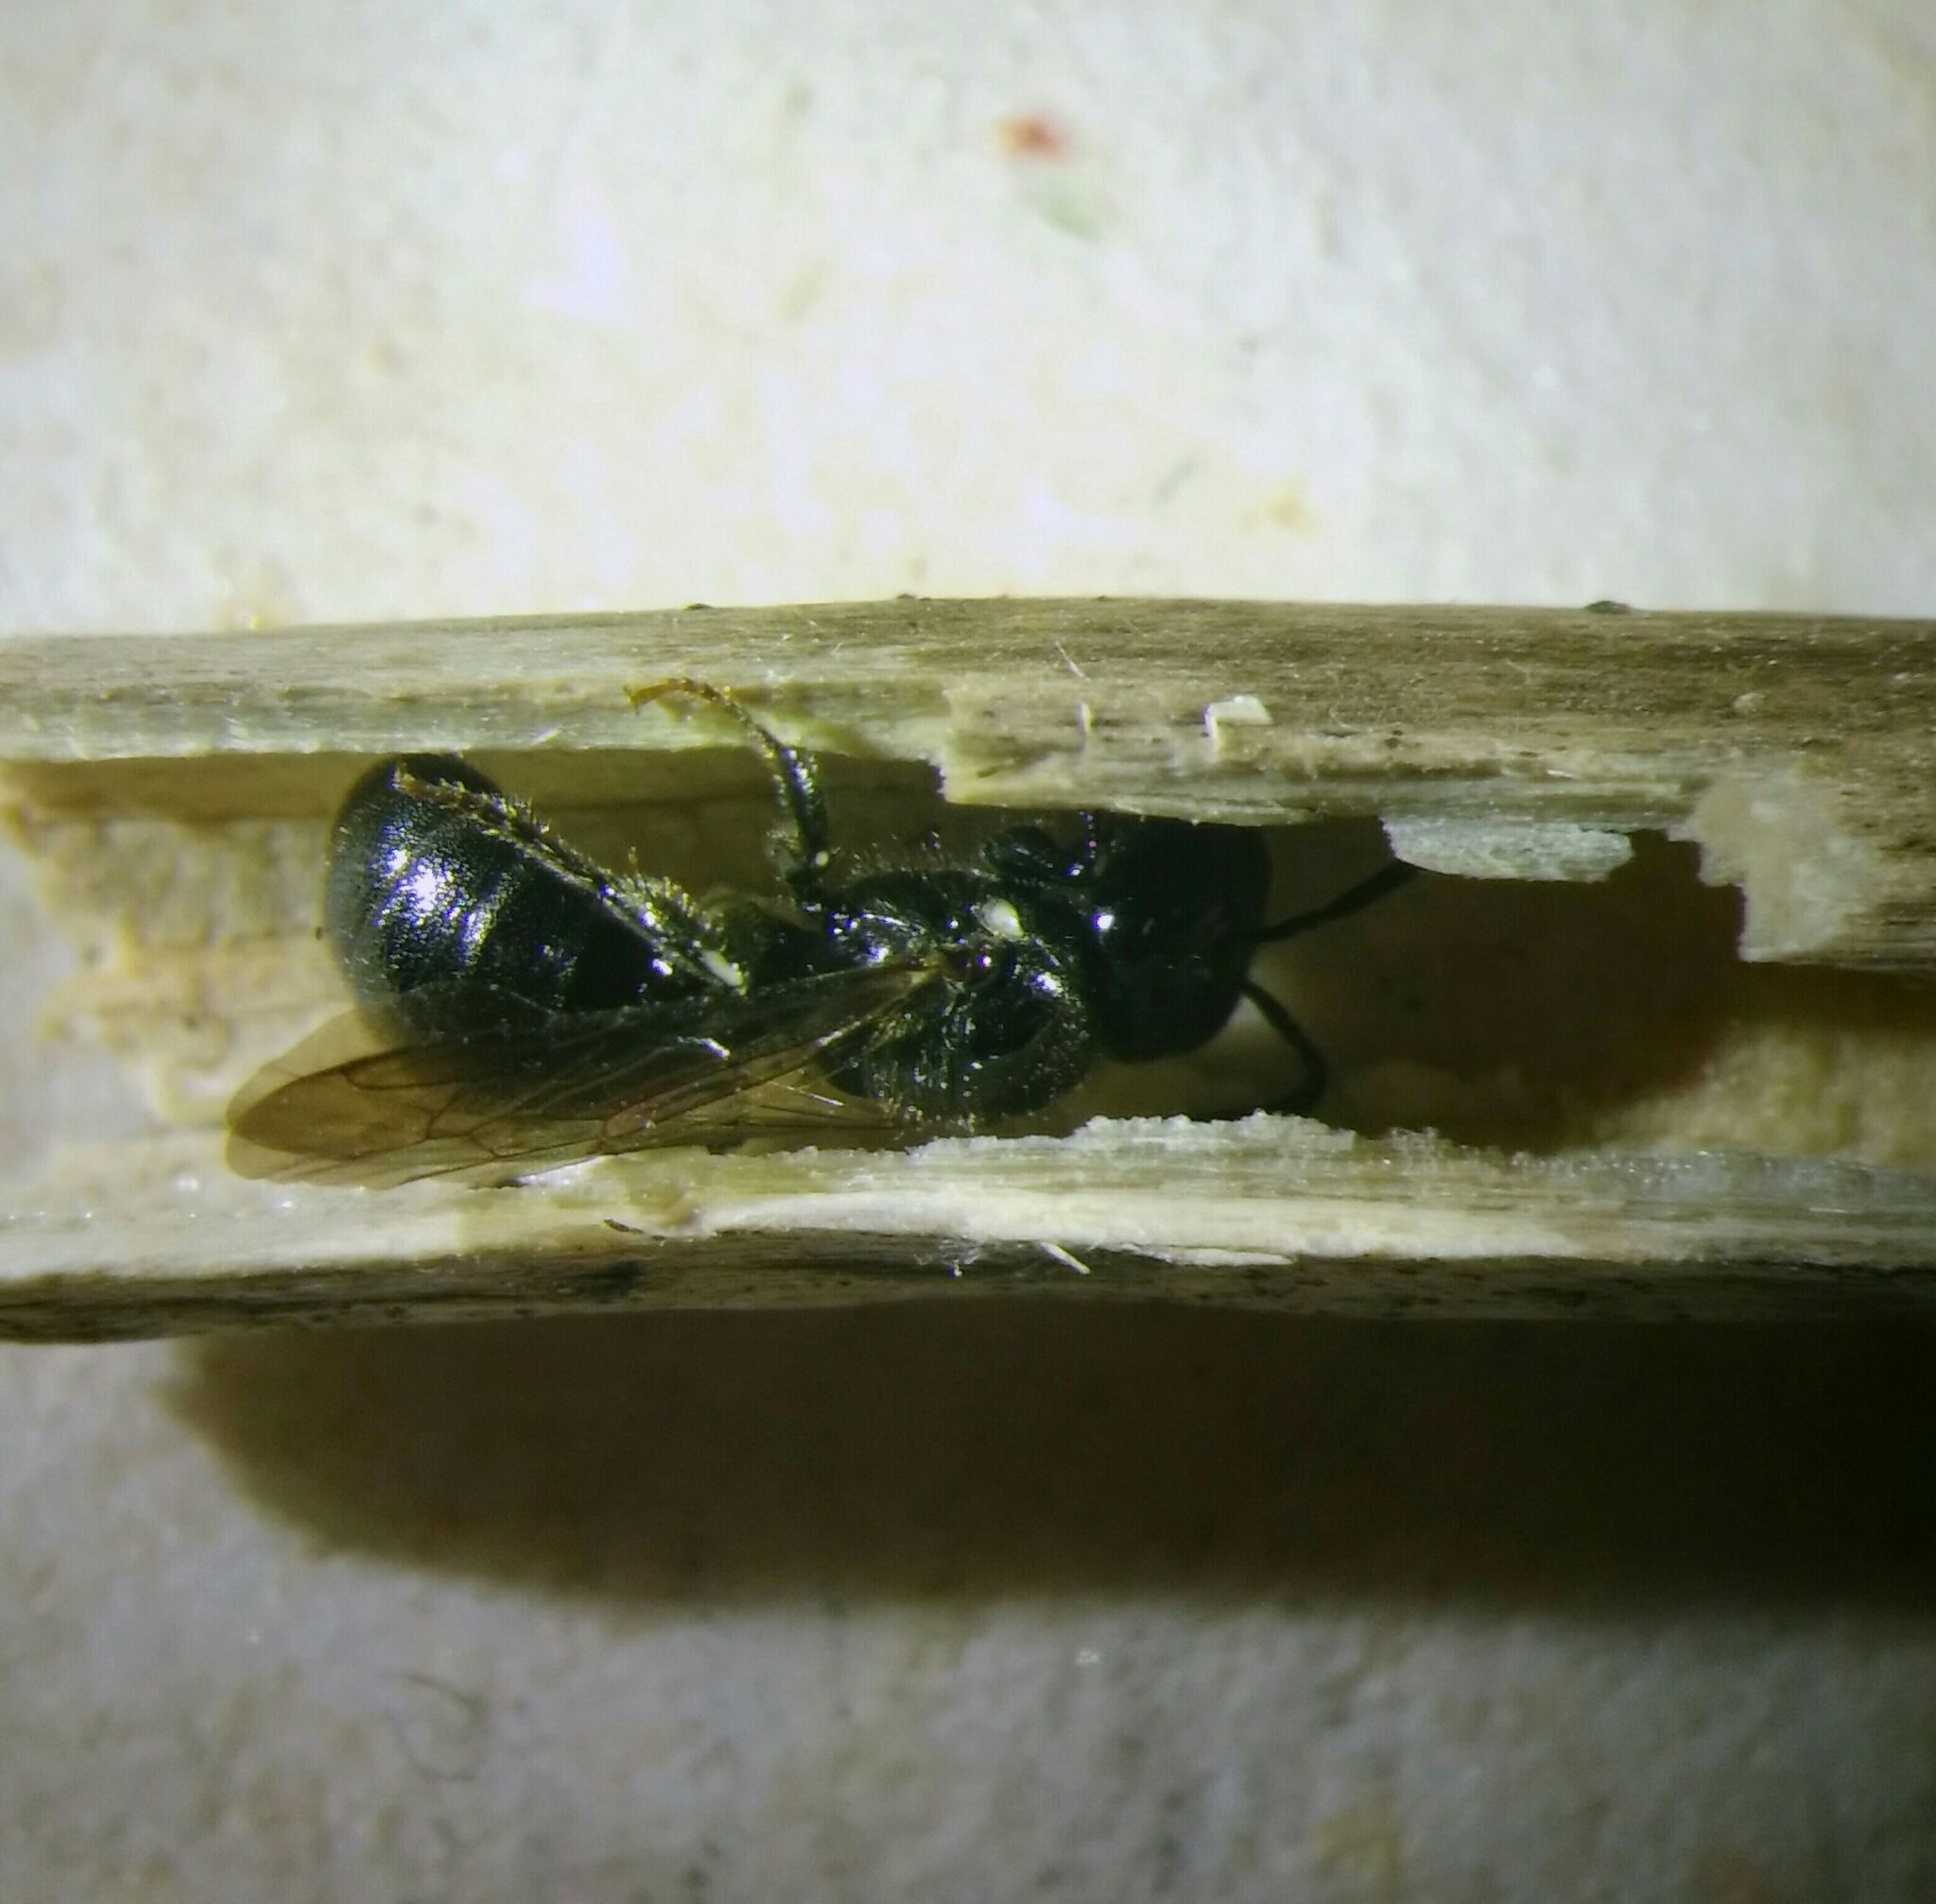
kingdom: Animalia
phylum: Arthropoda
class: Insecta
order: Hymenoptera
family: Apidae
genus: Ceratina
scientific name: Ceratina cucurbitina
